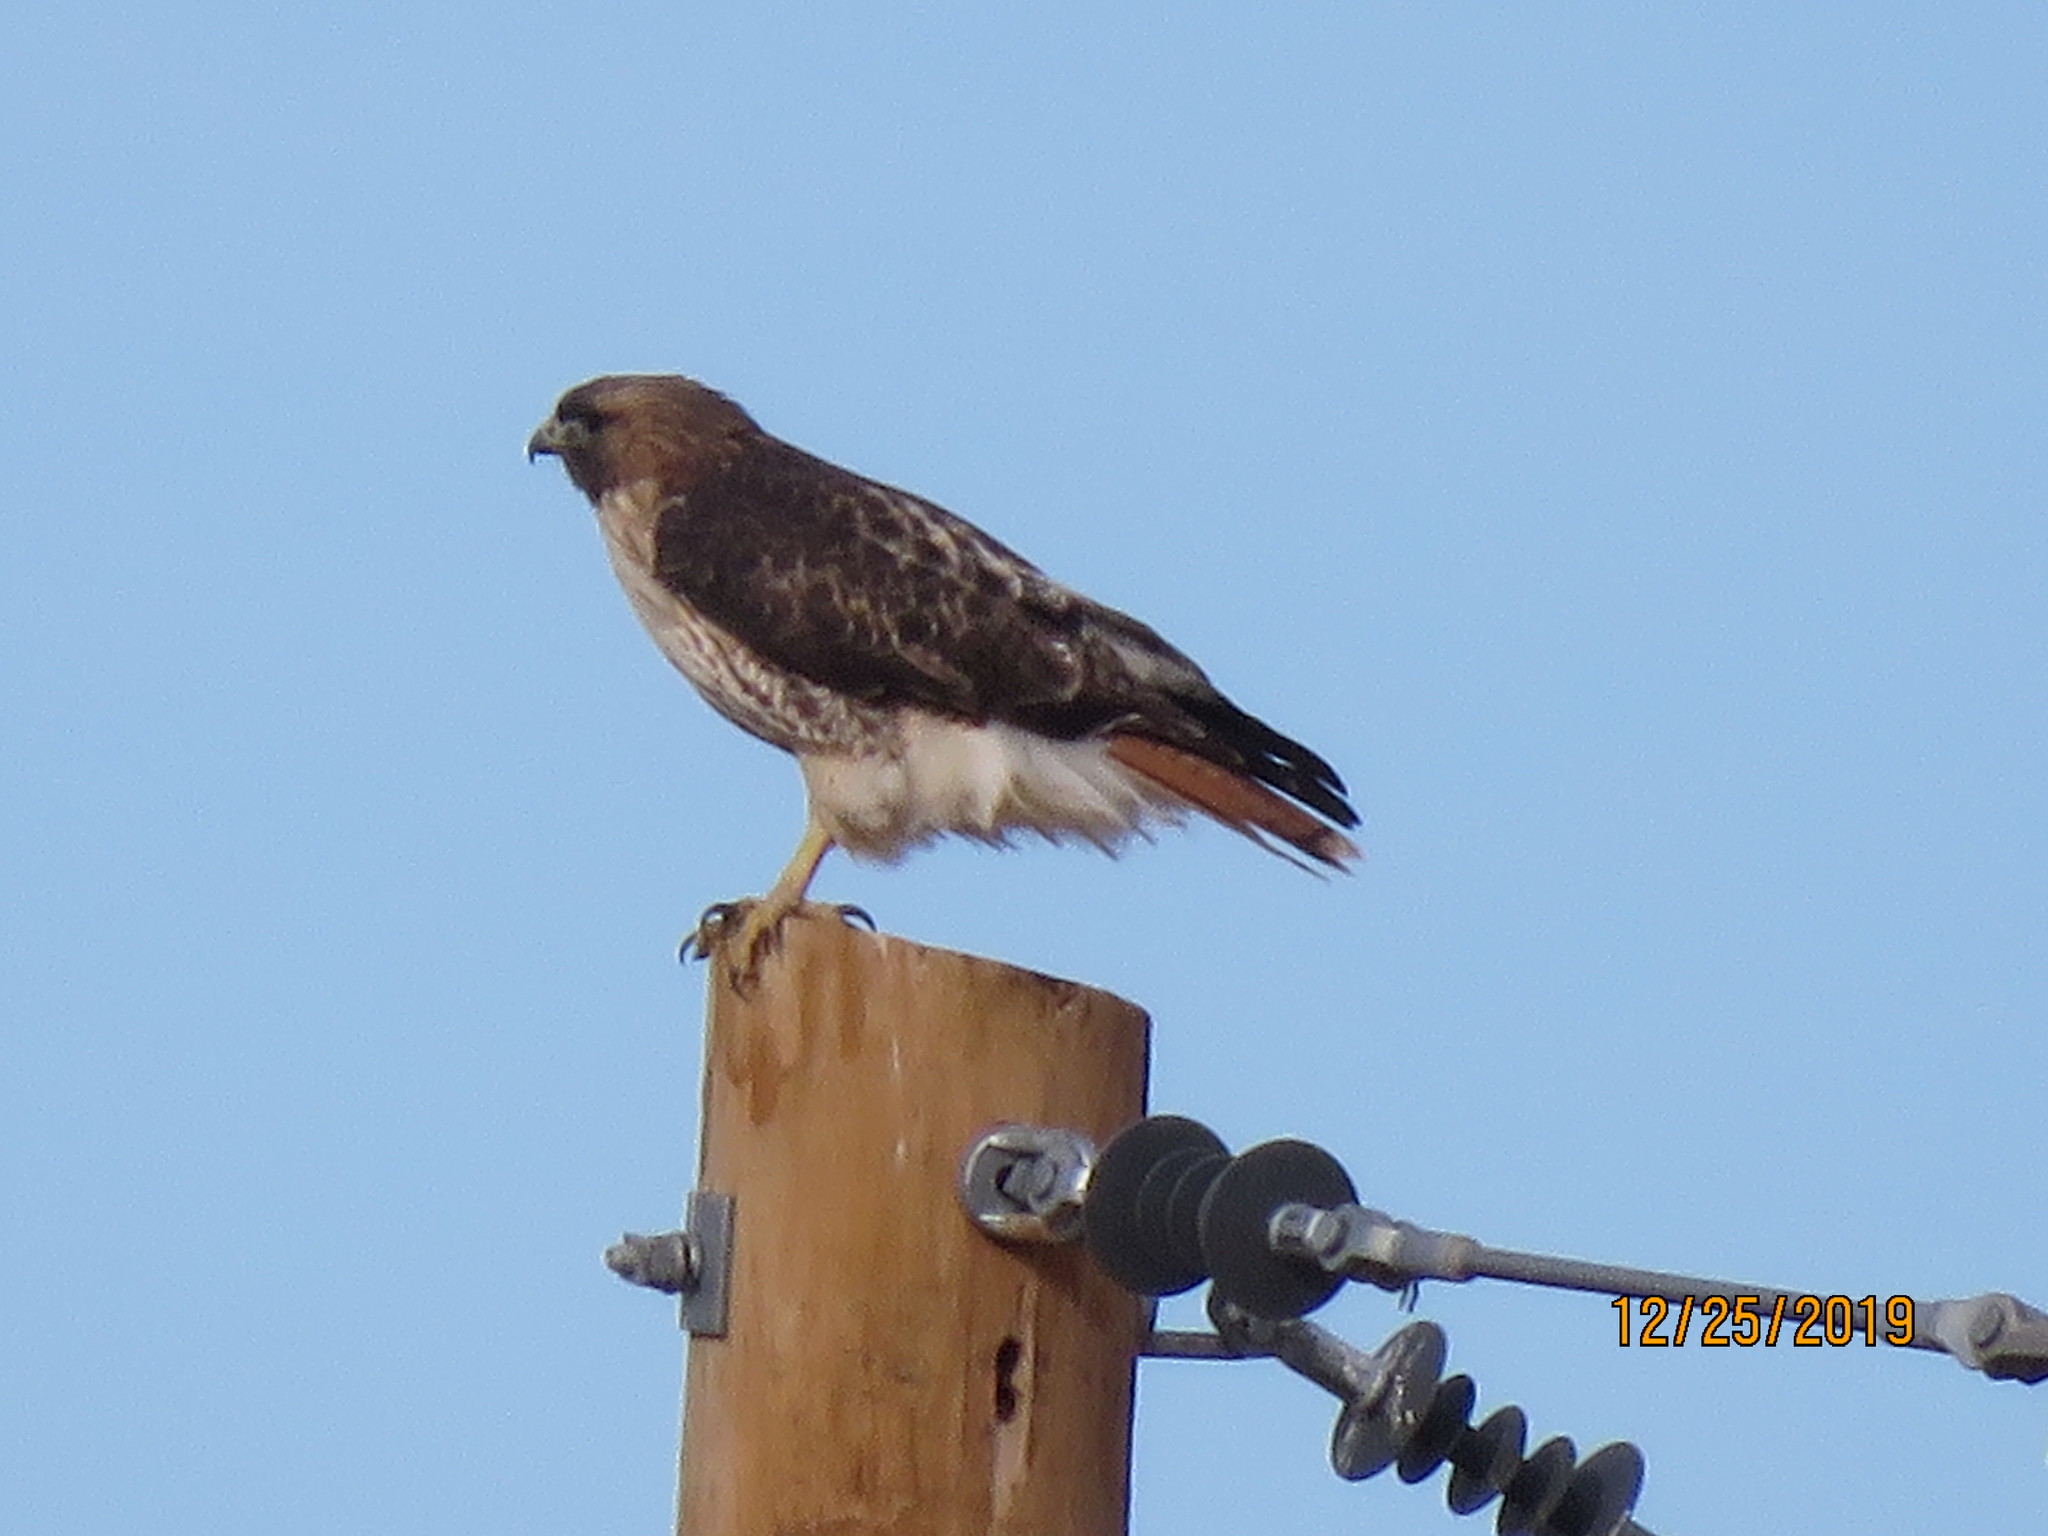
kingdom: Animalia
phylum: Chordata
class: Aves
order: Accipitriformes
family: Accipitridae
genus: Buteo
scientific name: Buteo jamaicensis
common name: Red-tailed hawk
